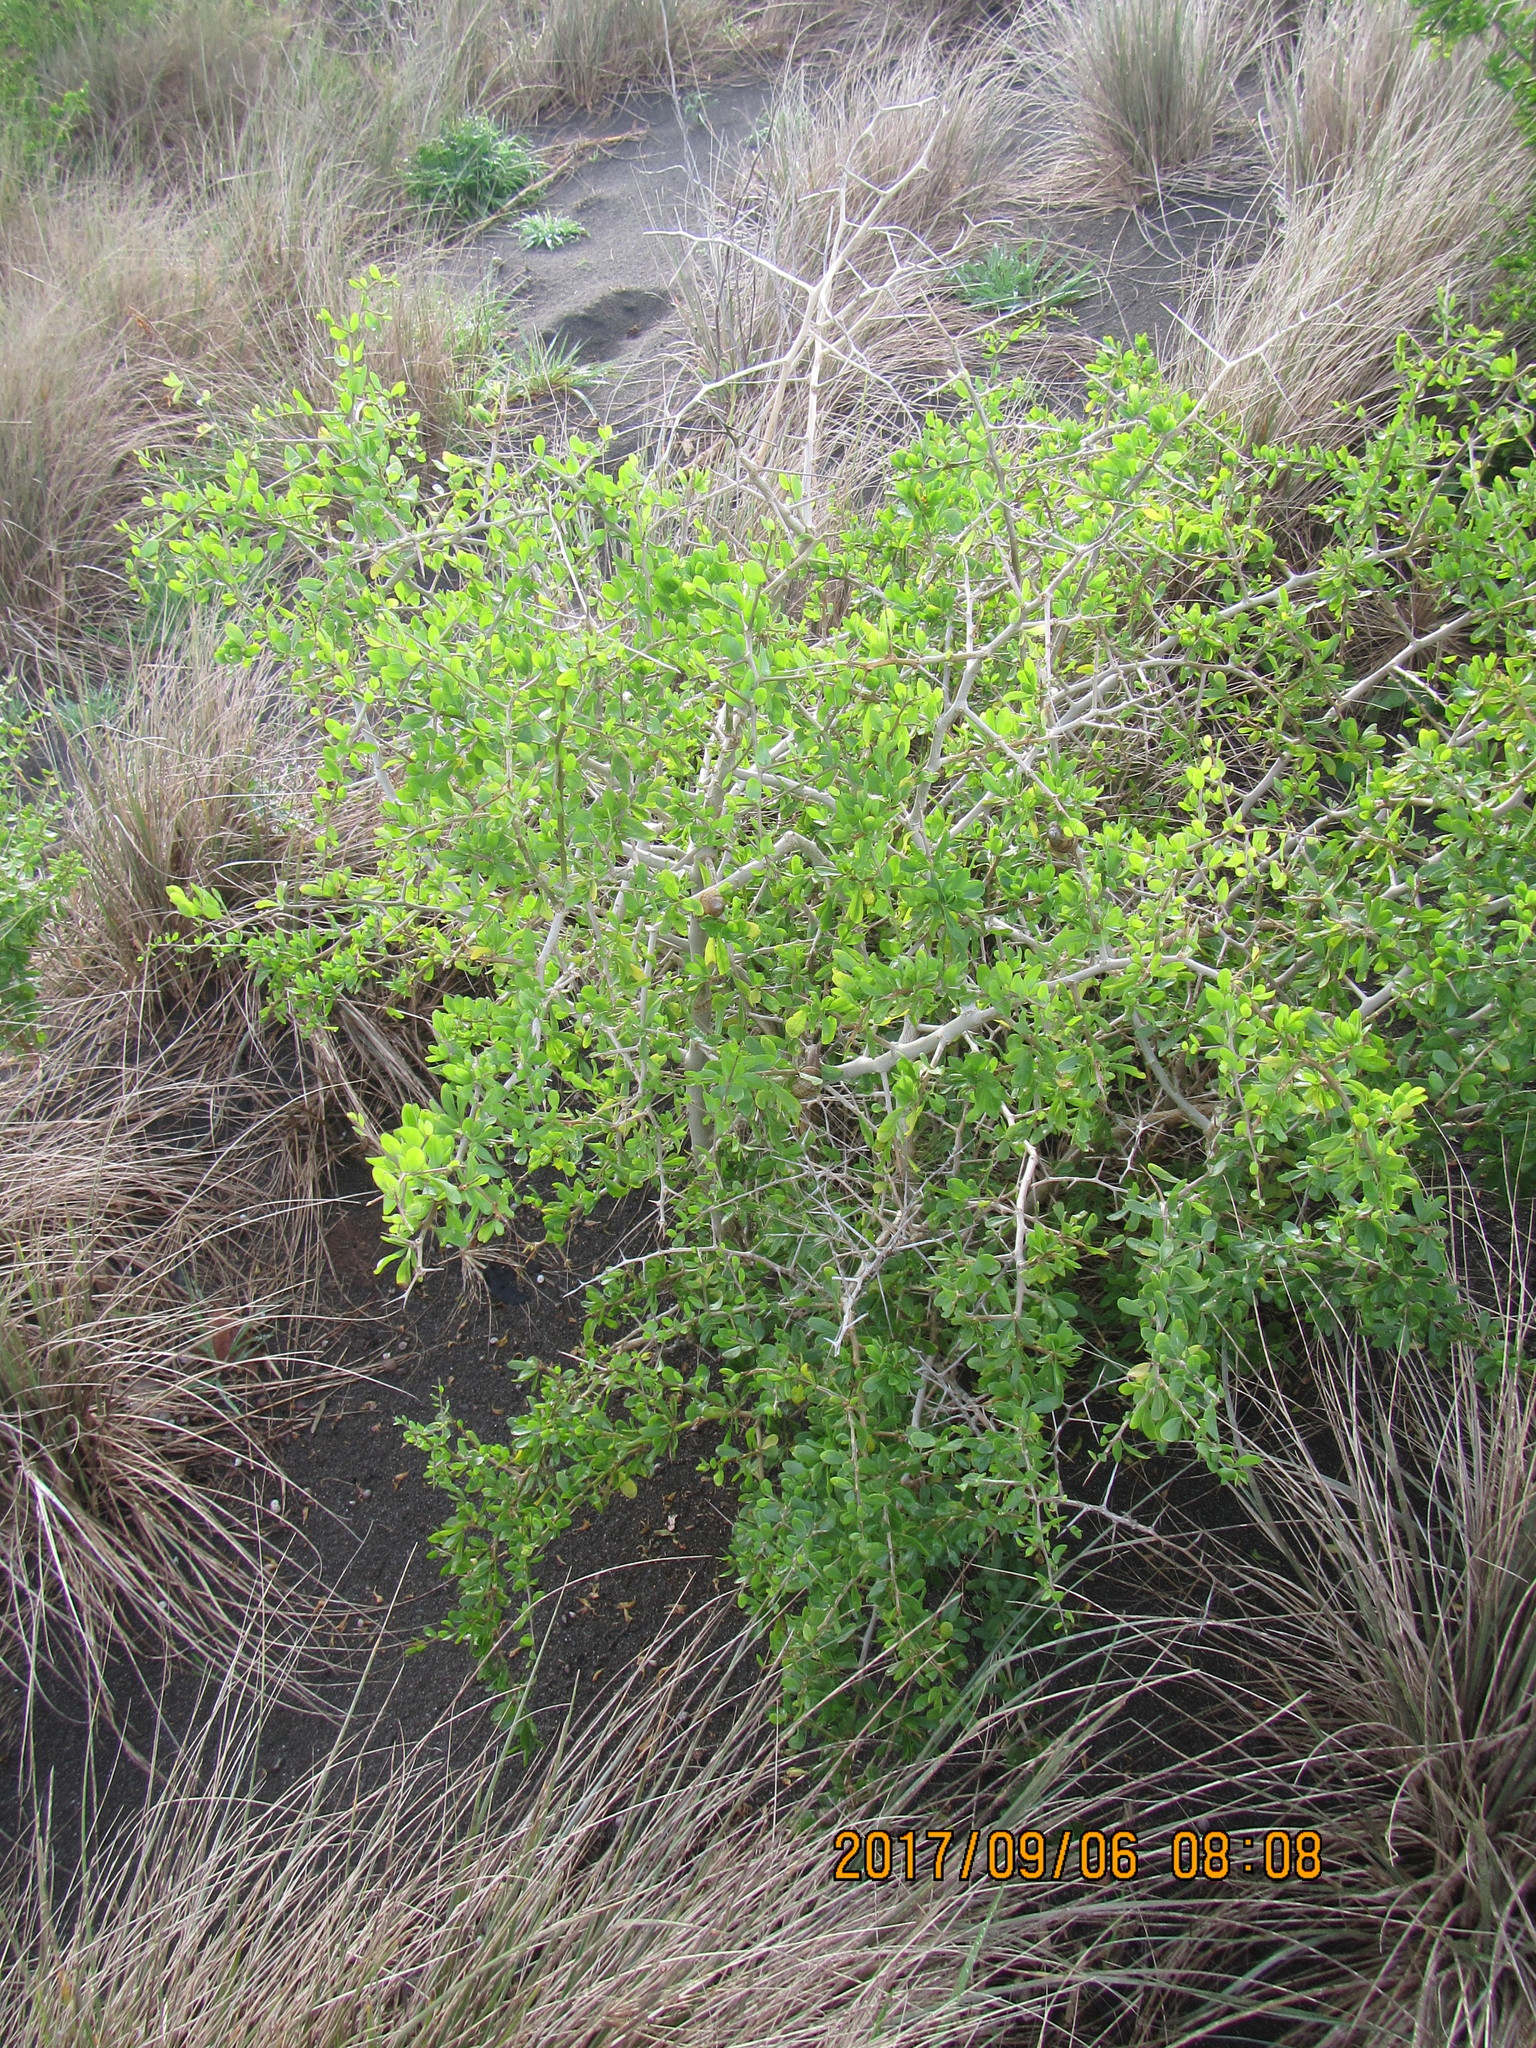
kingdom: Plantae
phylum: Tracheophyta
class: Magnoliopsida
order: Solanales
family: Solanaceae
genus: Lycium
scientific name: Lycium ferocissimum
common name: African boxthorn
